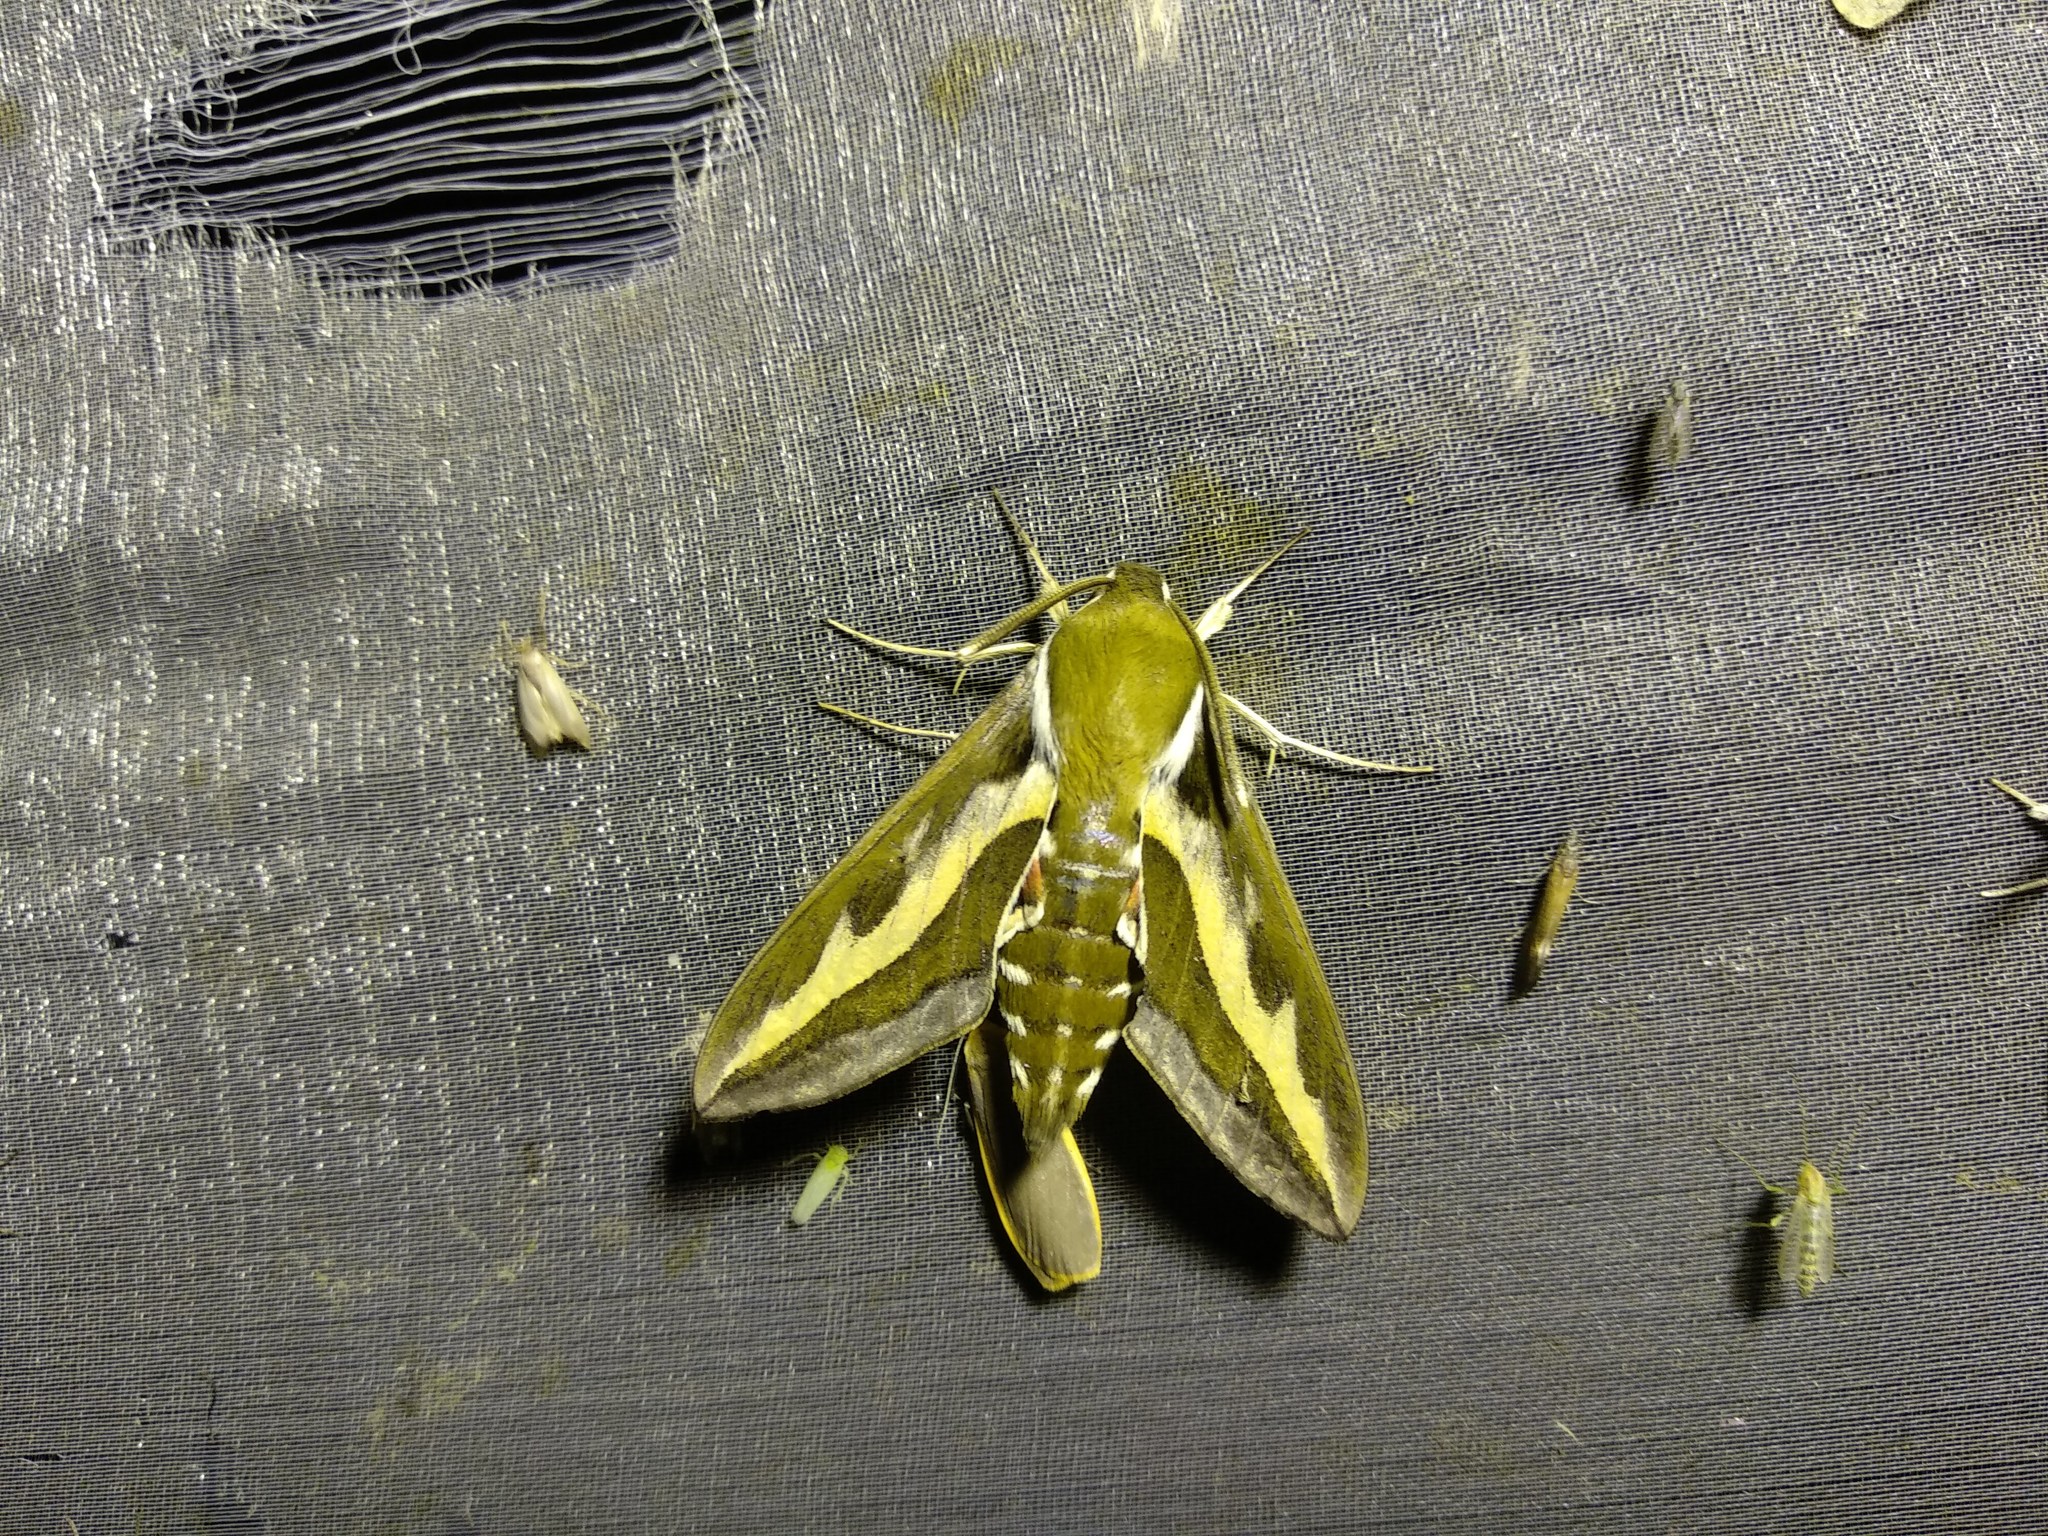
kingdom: Animalia
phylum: Arthropoda
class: Insecta
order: Lepidoptera
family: Sphingidae
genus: Hyles
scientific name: Hyles gallii
